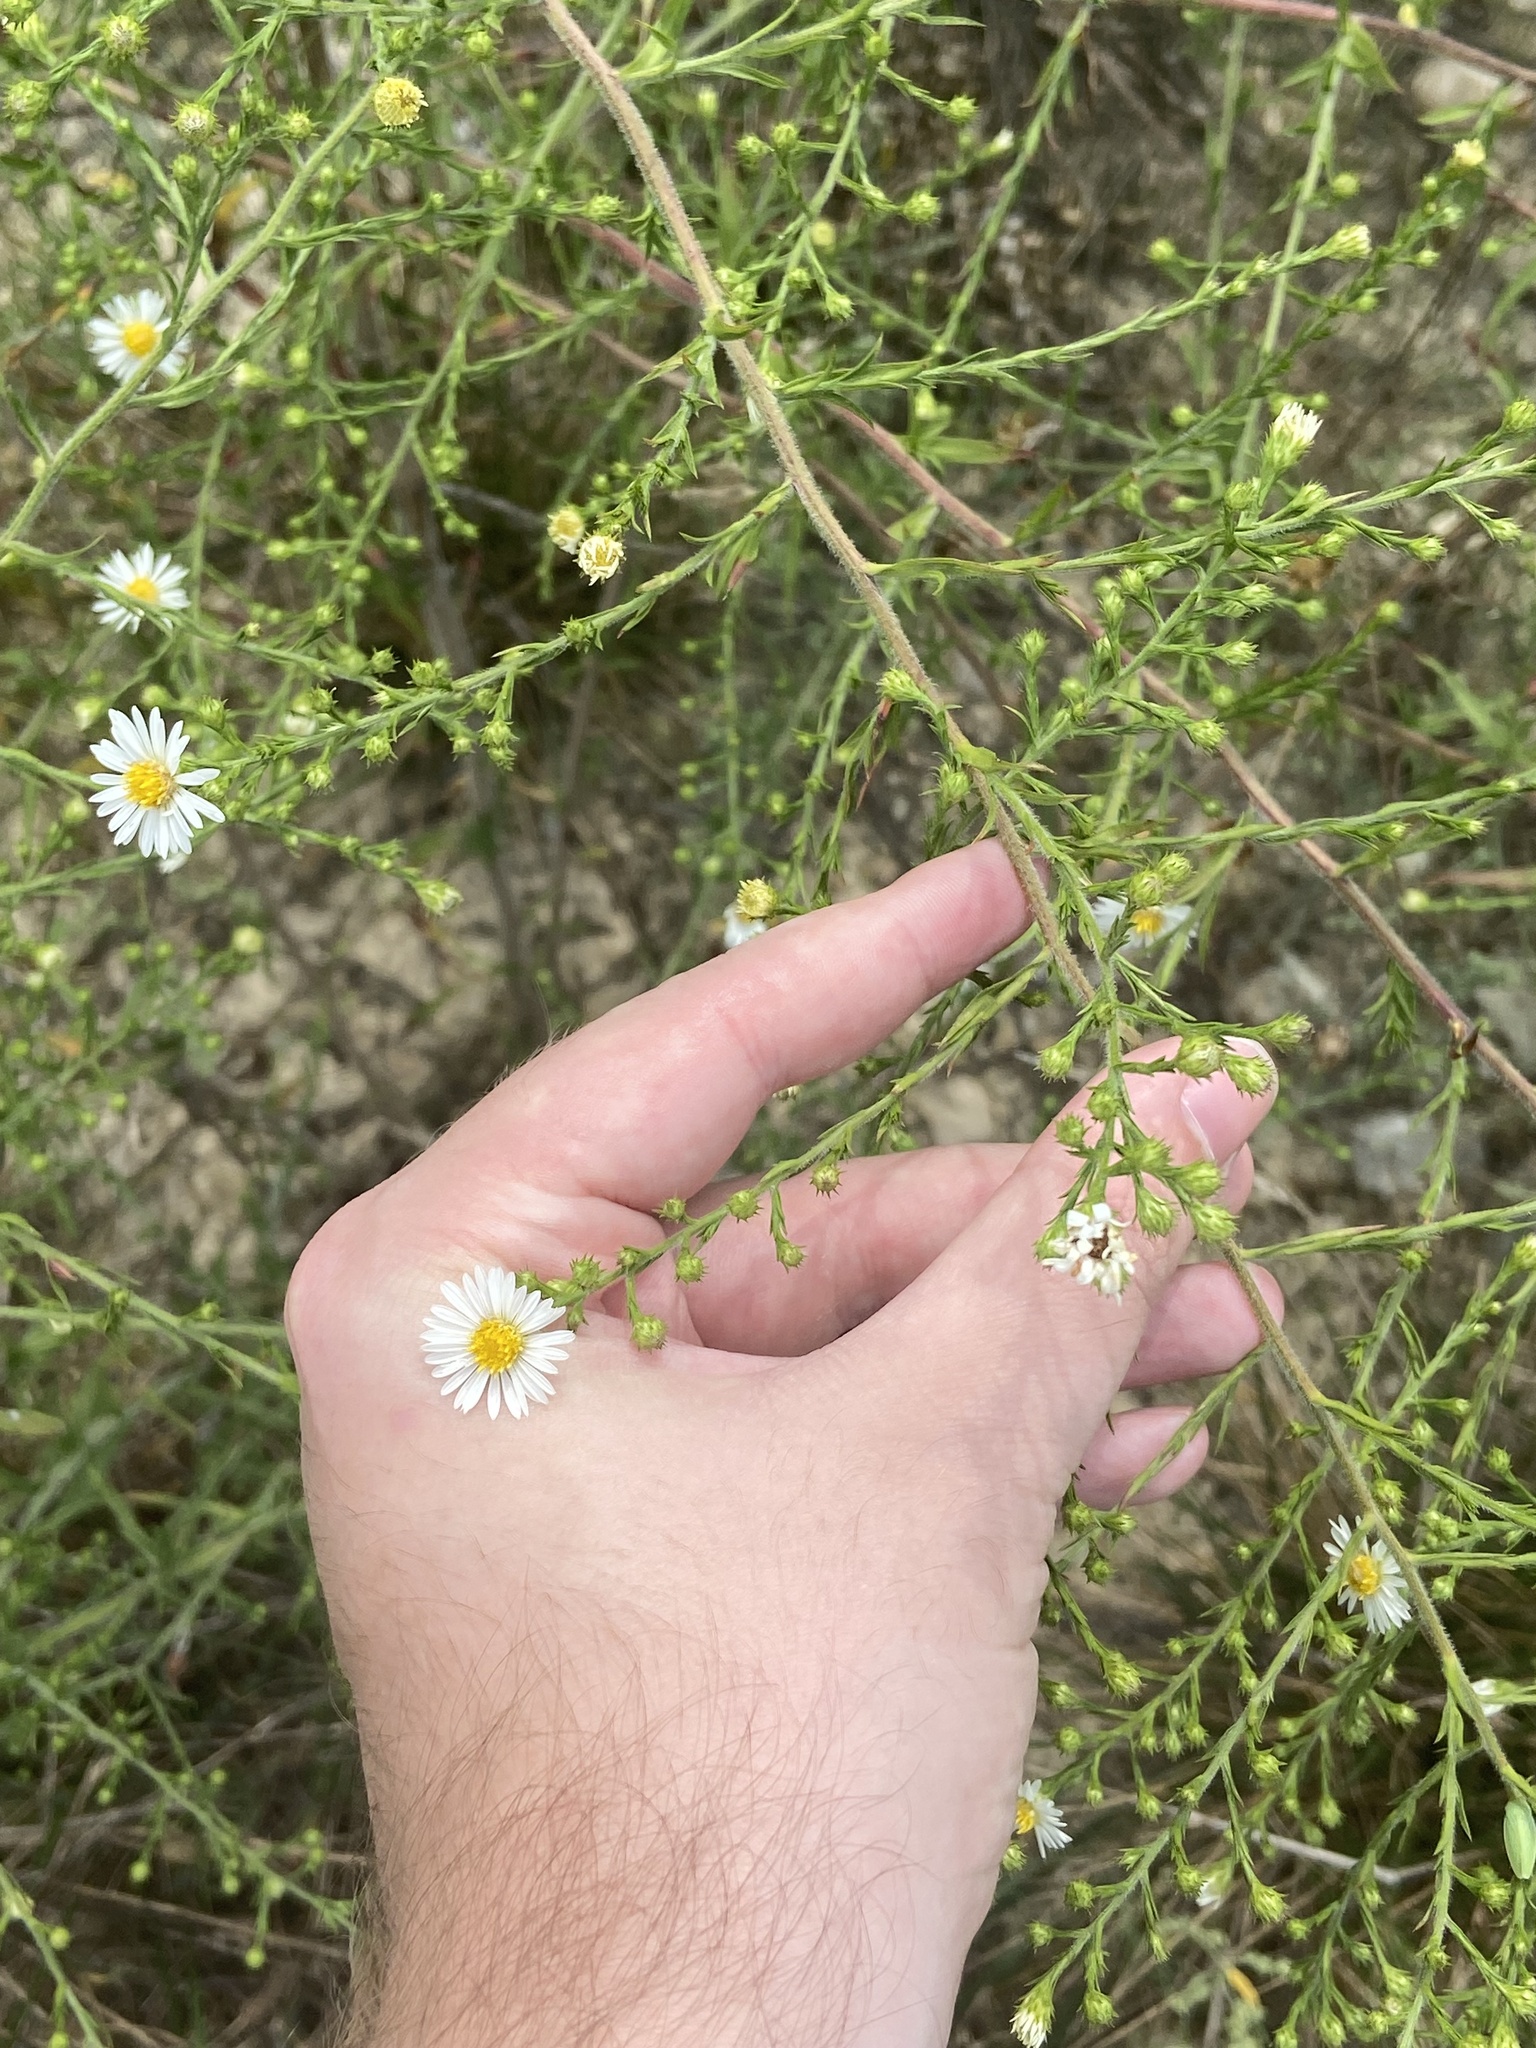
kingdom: Plantae
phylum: Tracheophyta
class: Magnoliopsida
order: Asterales
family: Asteraceae
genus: Symphyotrichum
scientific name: Symphyotrichum pilosum
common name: Awl aster
